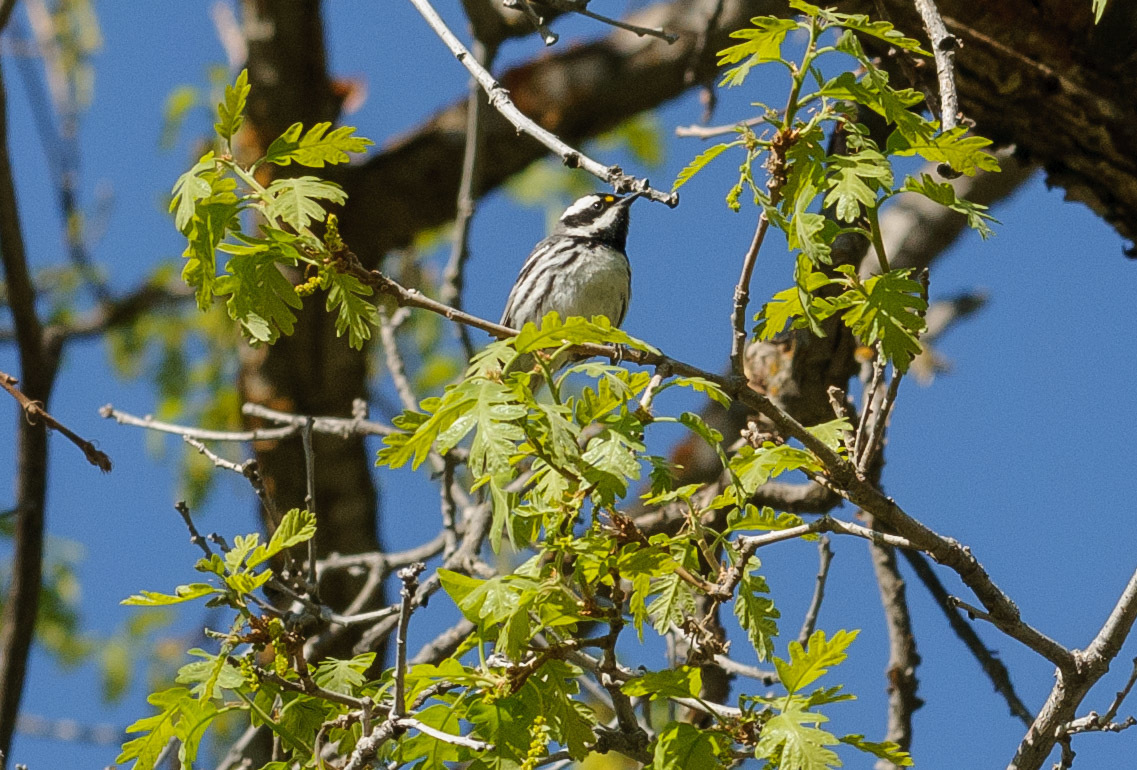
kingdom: Animalia
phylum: Chordata
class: Aves
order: Passeriformes
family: Parulidae
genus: Setophaga
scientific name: Setophaga nigrescens
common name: Black-throated gray warbler
